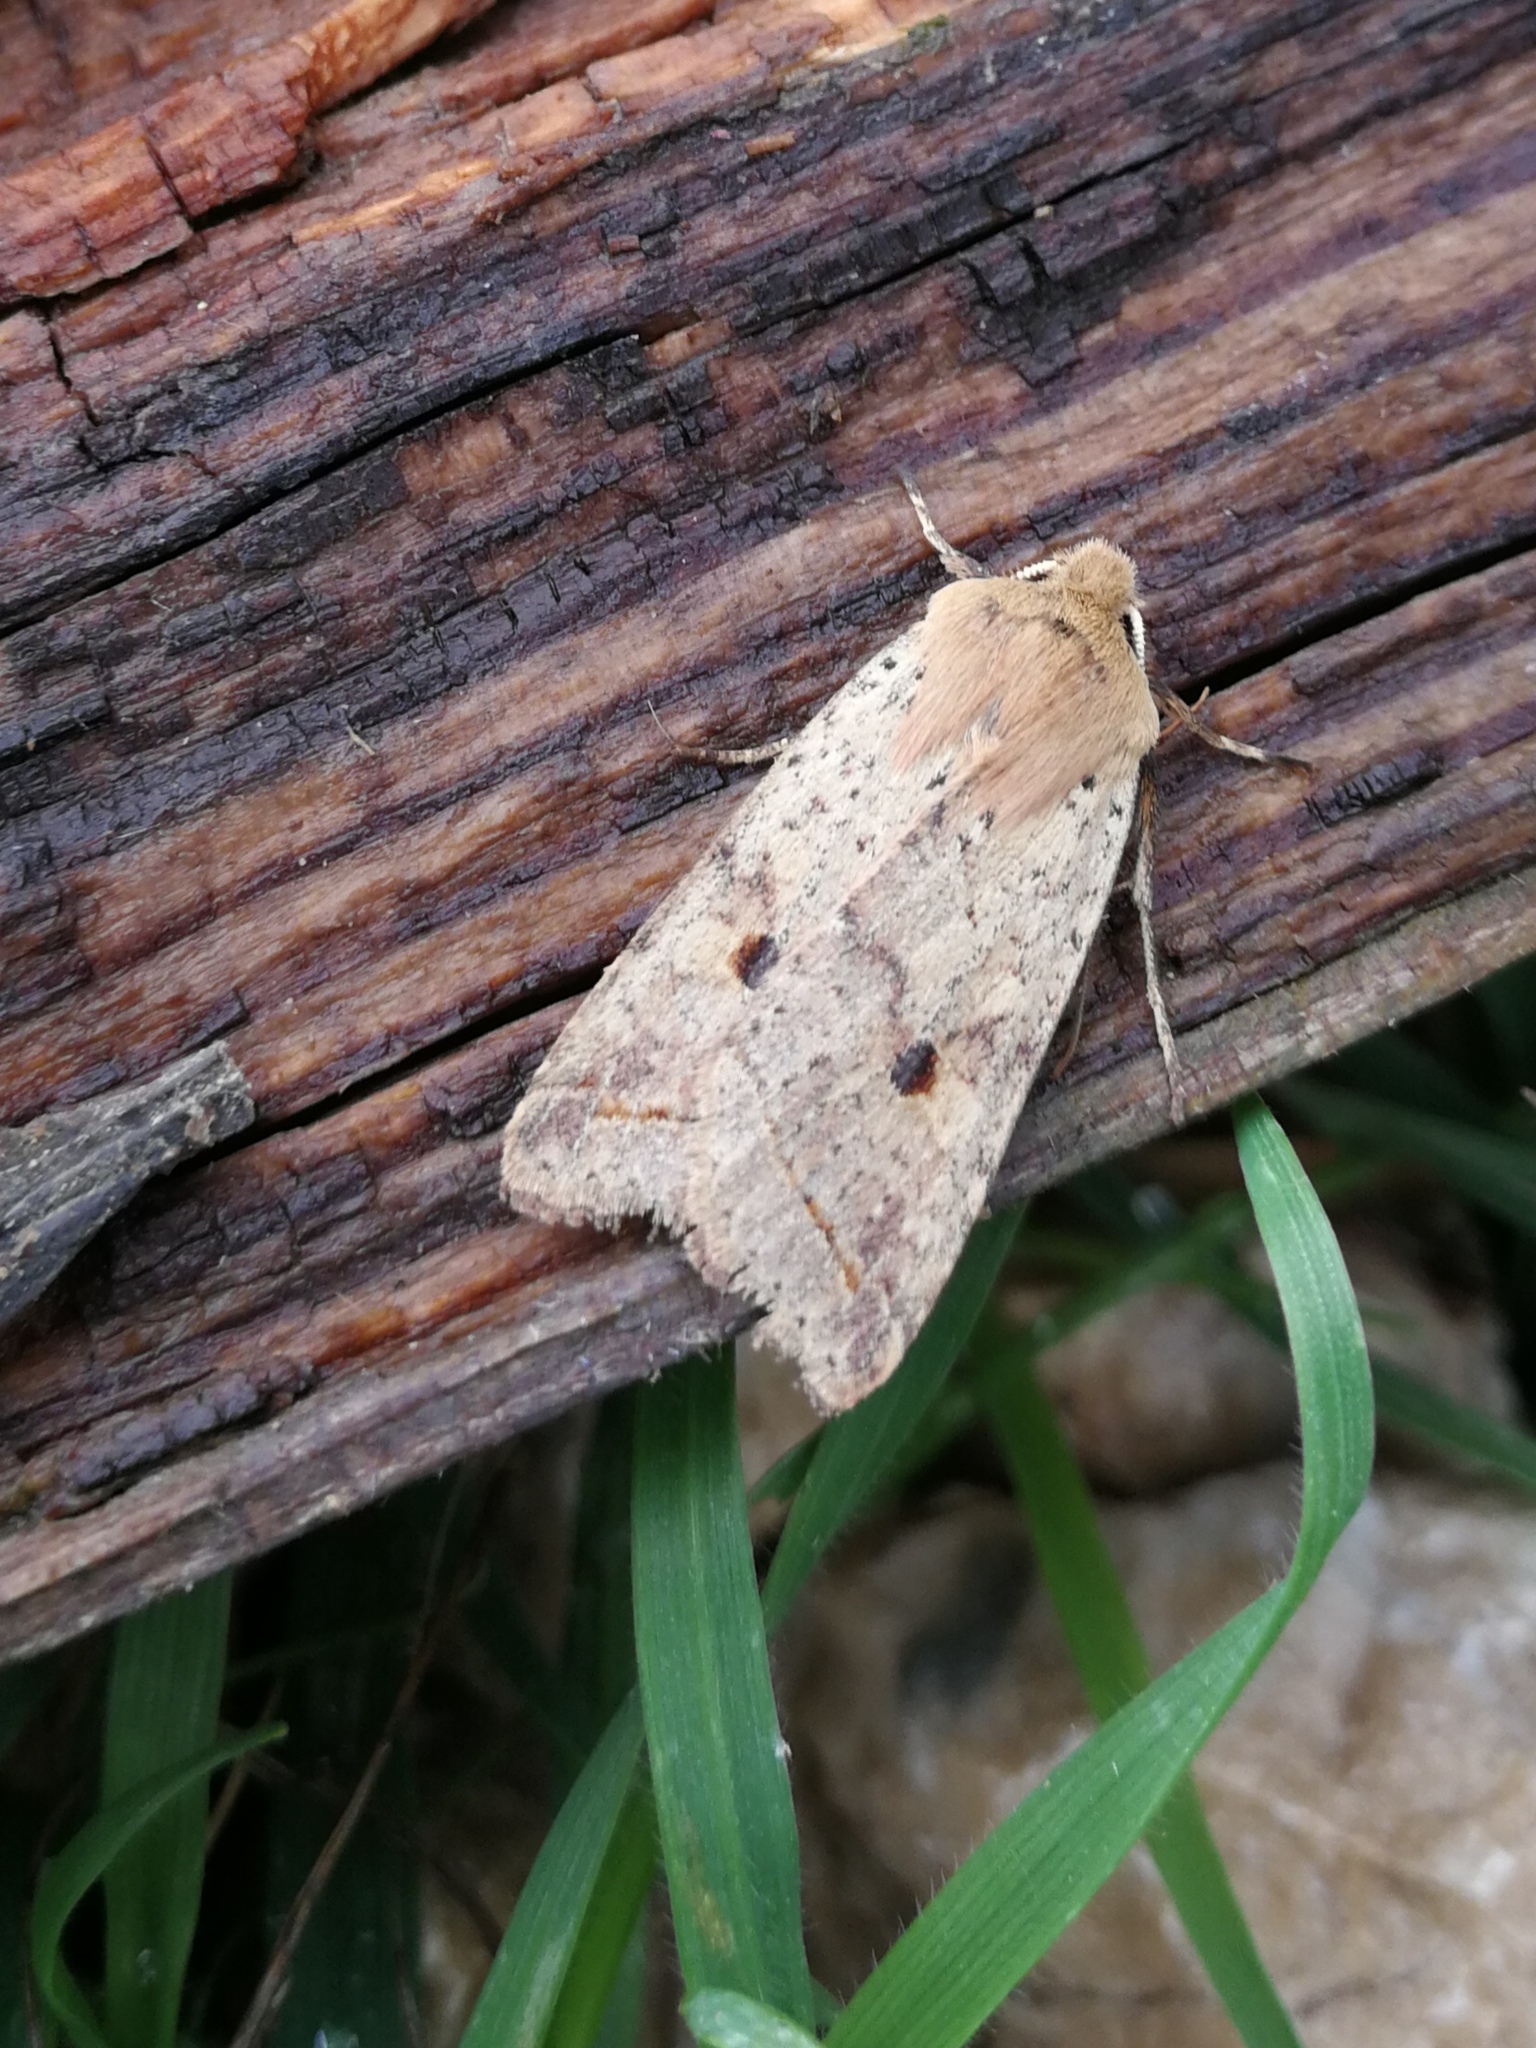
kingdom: Animalia
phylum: Arthropoda
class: Insecta
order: Lepidoptera
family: Noctuidae
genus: Agrochola
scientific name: Agrochola blidaensis
